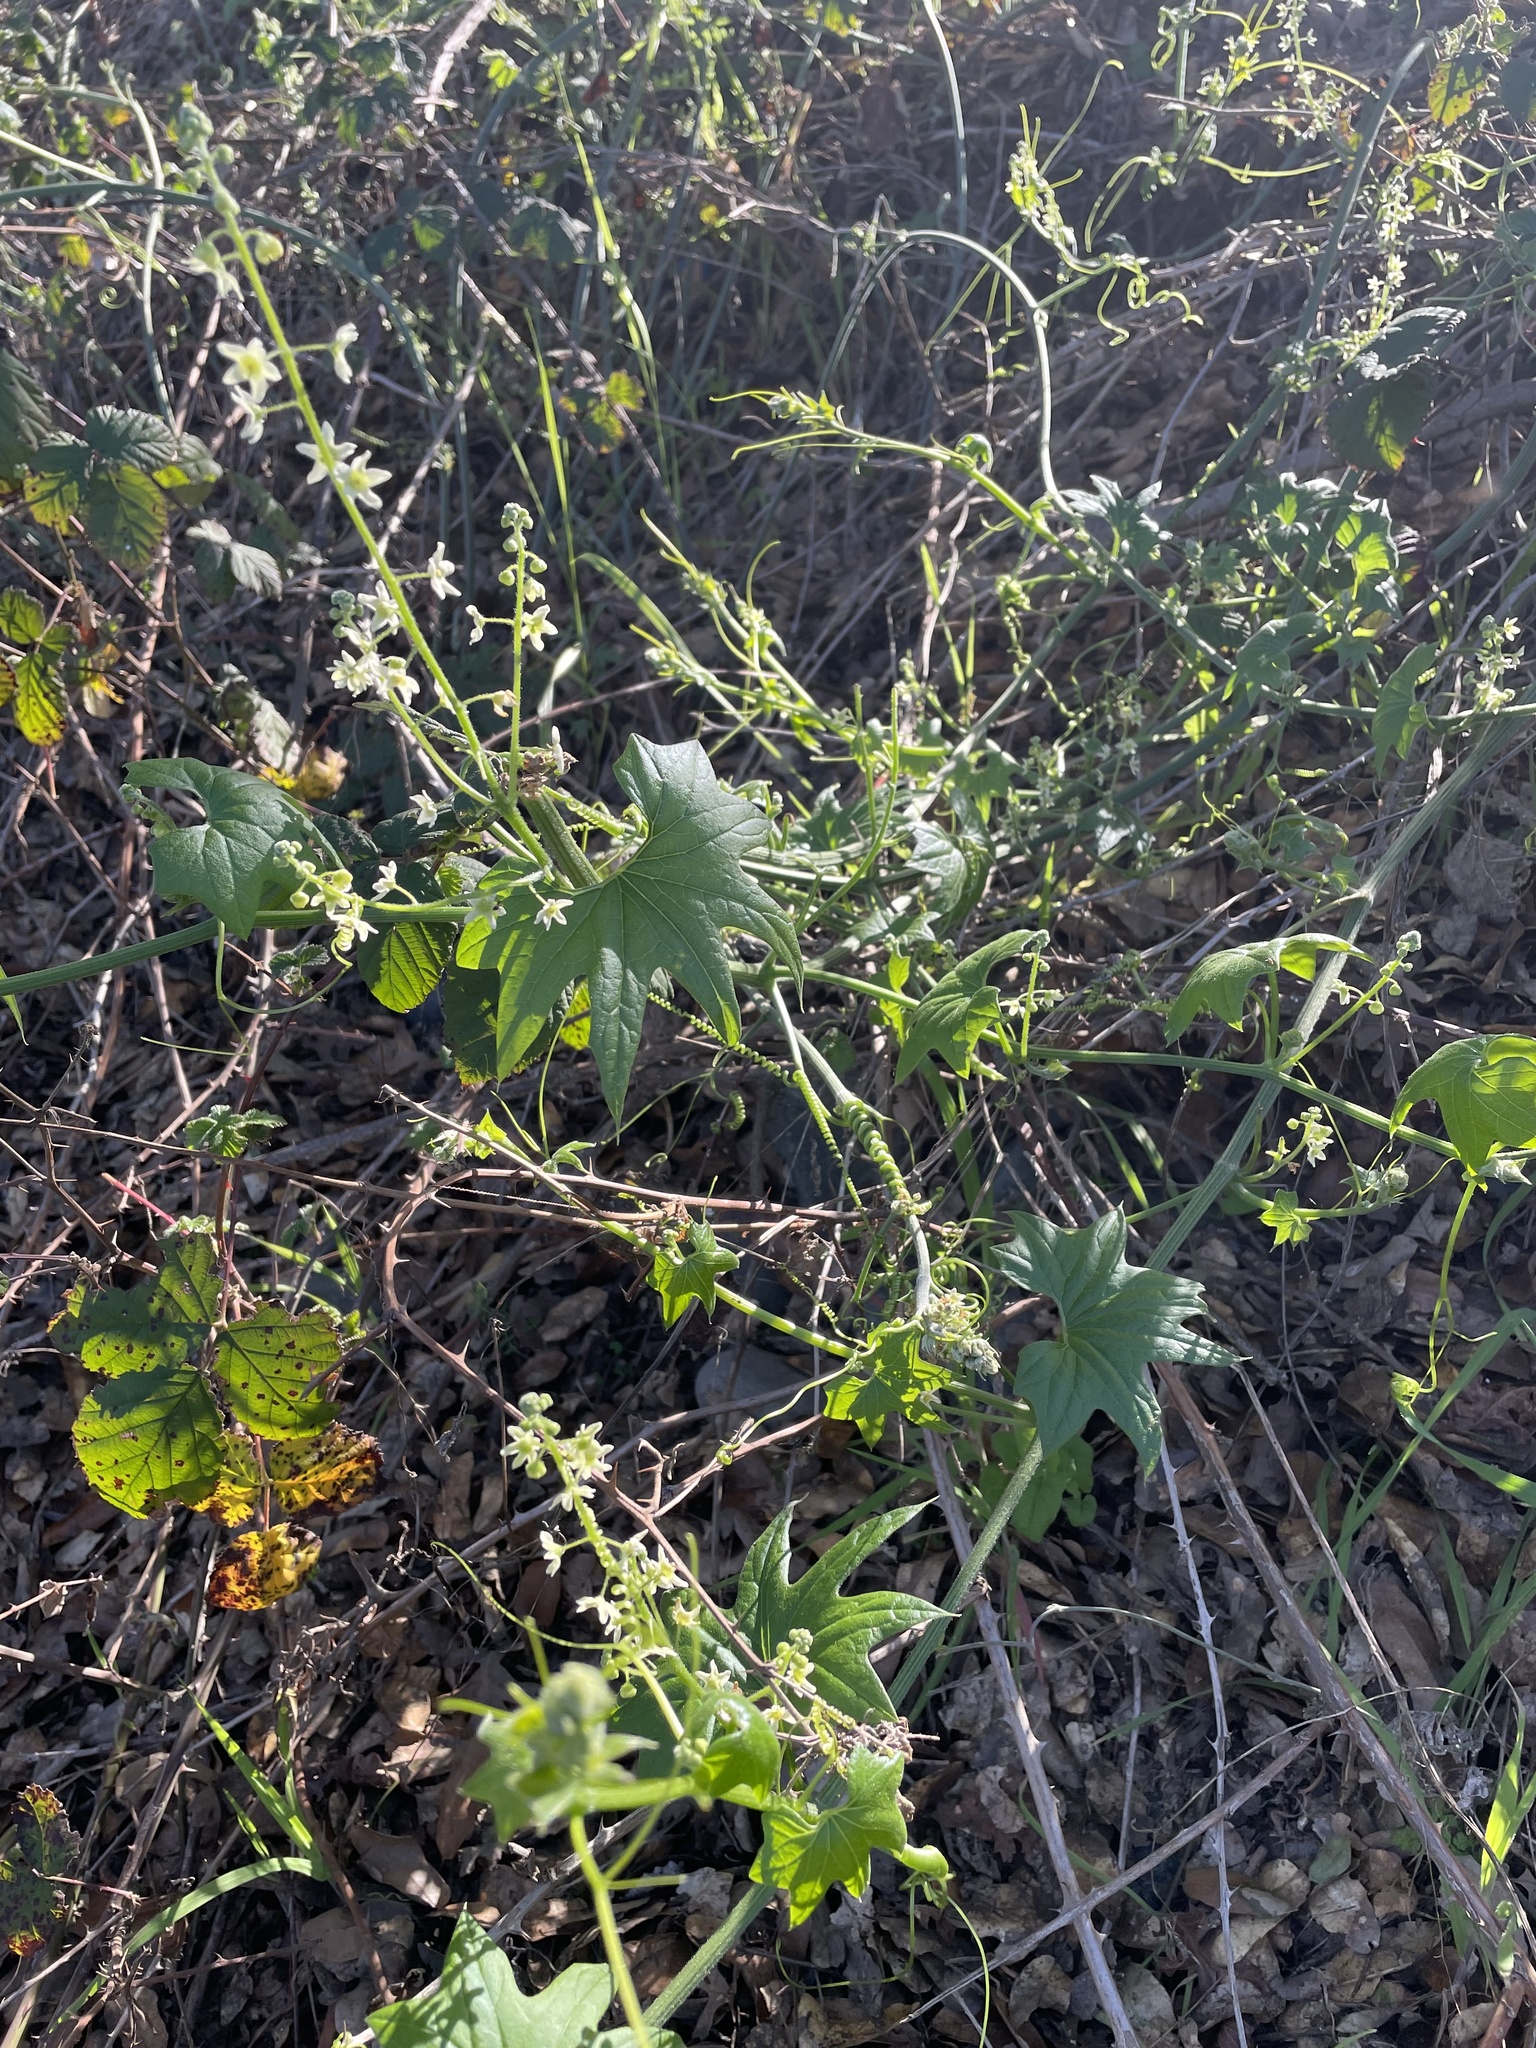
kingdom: Plantae
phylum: Tracheophyta
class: Magnoliopsida
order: Cucurbitales
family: Cucurbitaceae
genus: Marah
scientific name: Marah fabacea
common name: California manroot
